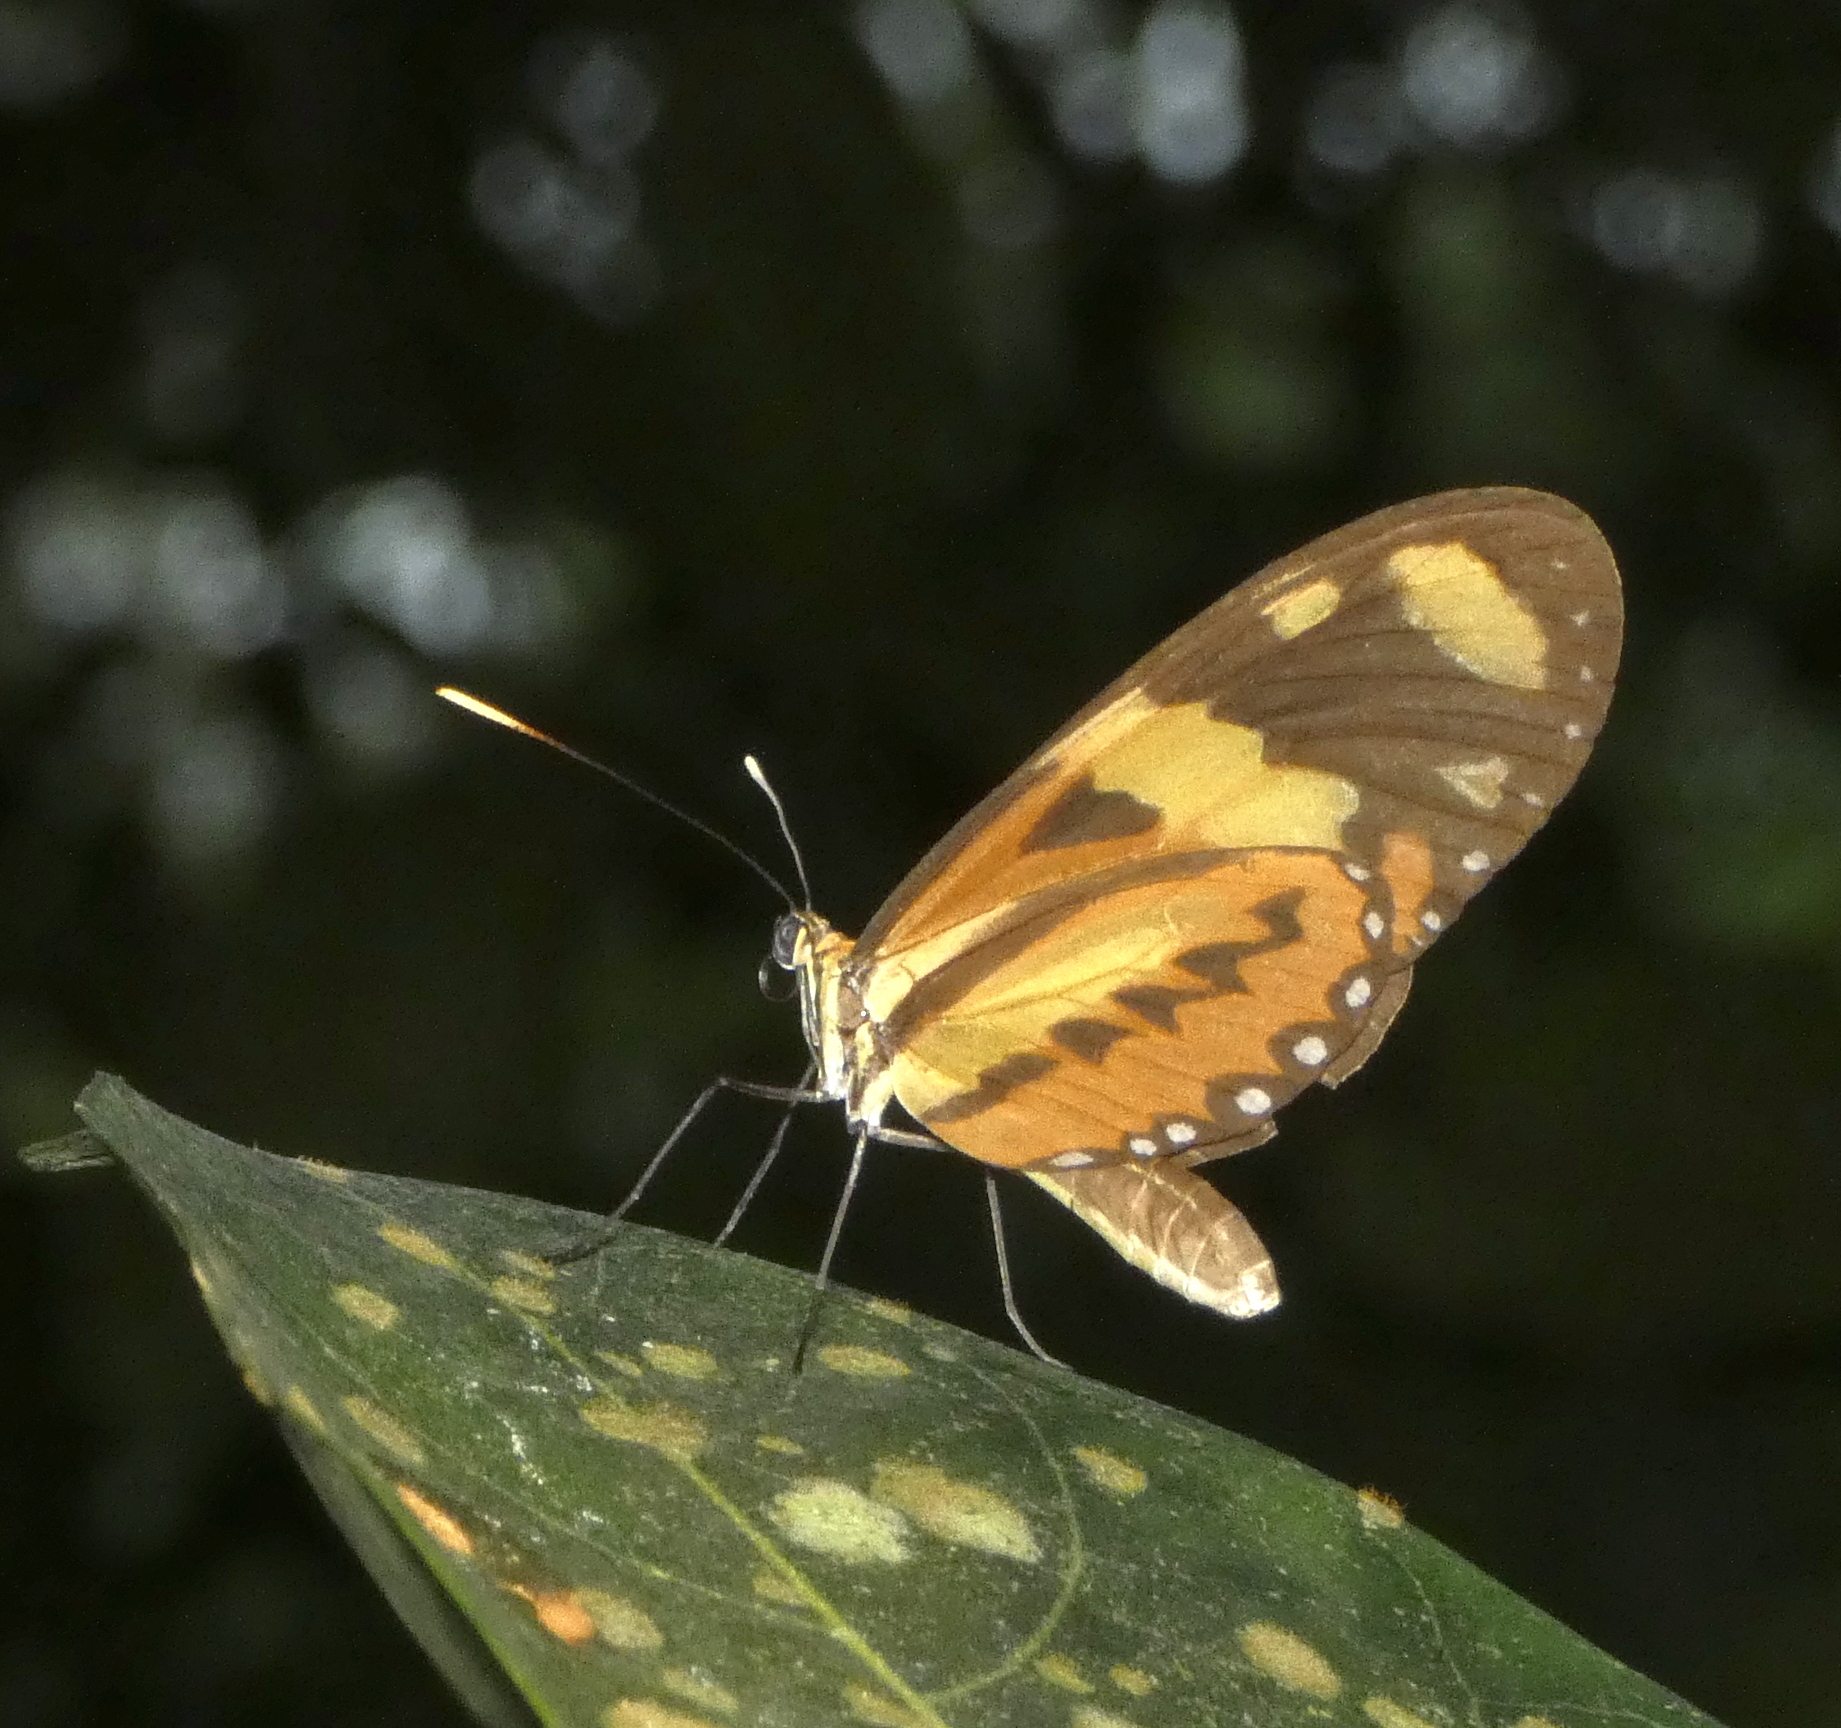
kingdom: Animalia
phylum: Arthropoda
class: Insecta
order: Lepidoptera
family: Nymphalidae
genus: Mechanitis
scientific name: Mechanitis lysimnia
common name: Lysimnia tigerwing
